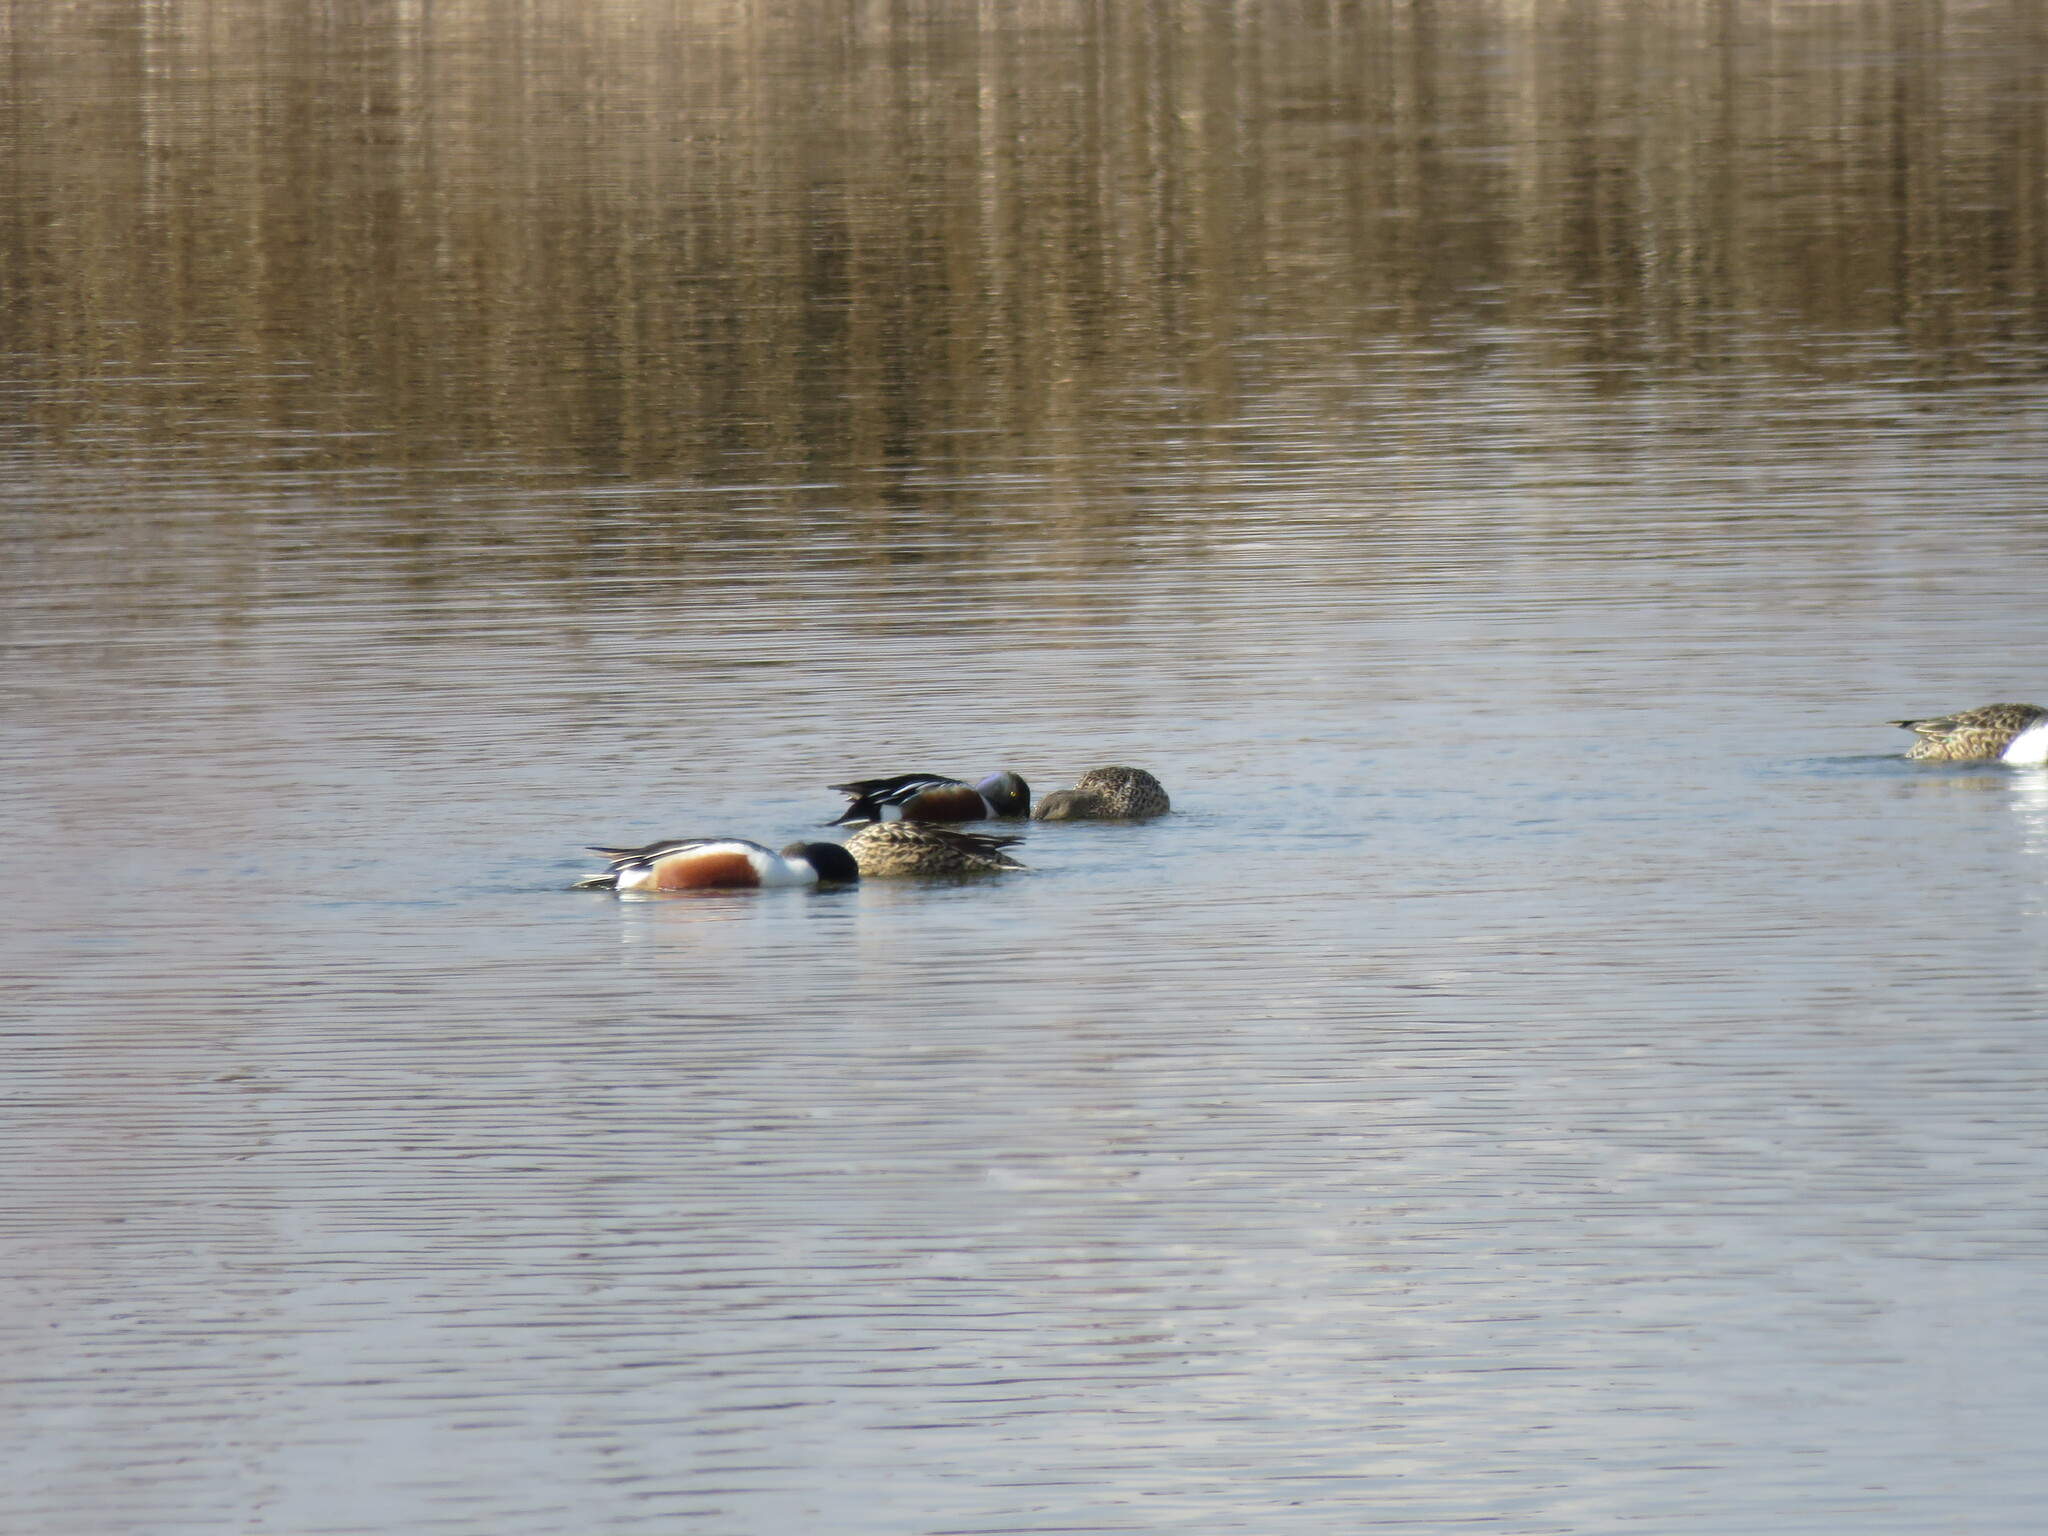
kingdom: Animalia
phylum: Chordata
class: Aves
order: Anseriformes
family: Anatidae
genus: Spatula
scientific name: Spatula clypeata
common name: Northern shoveler
